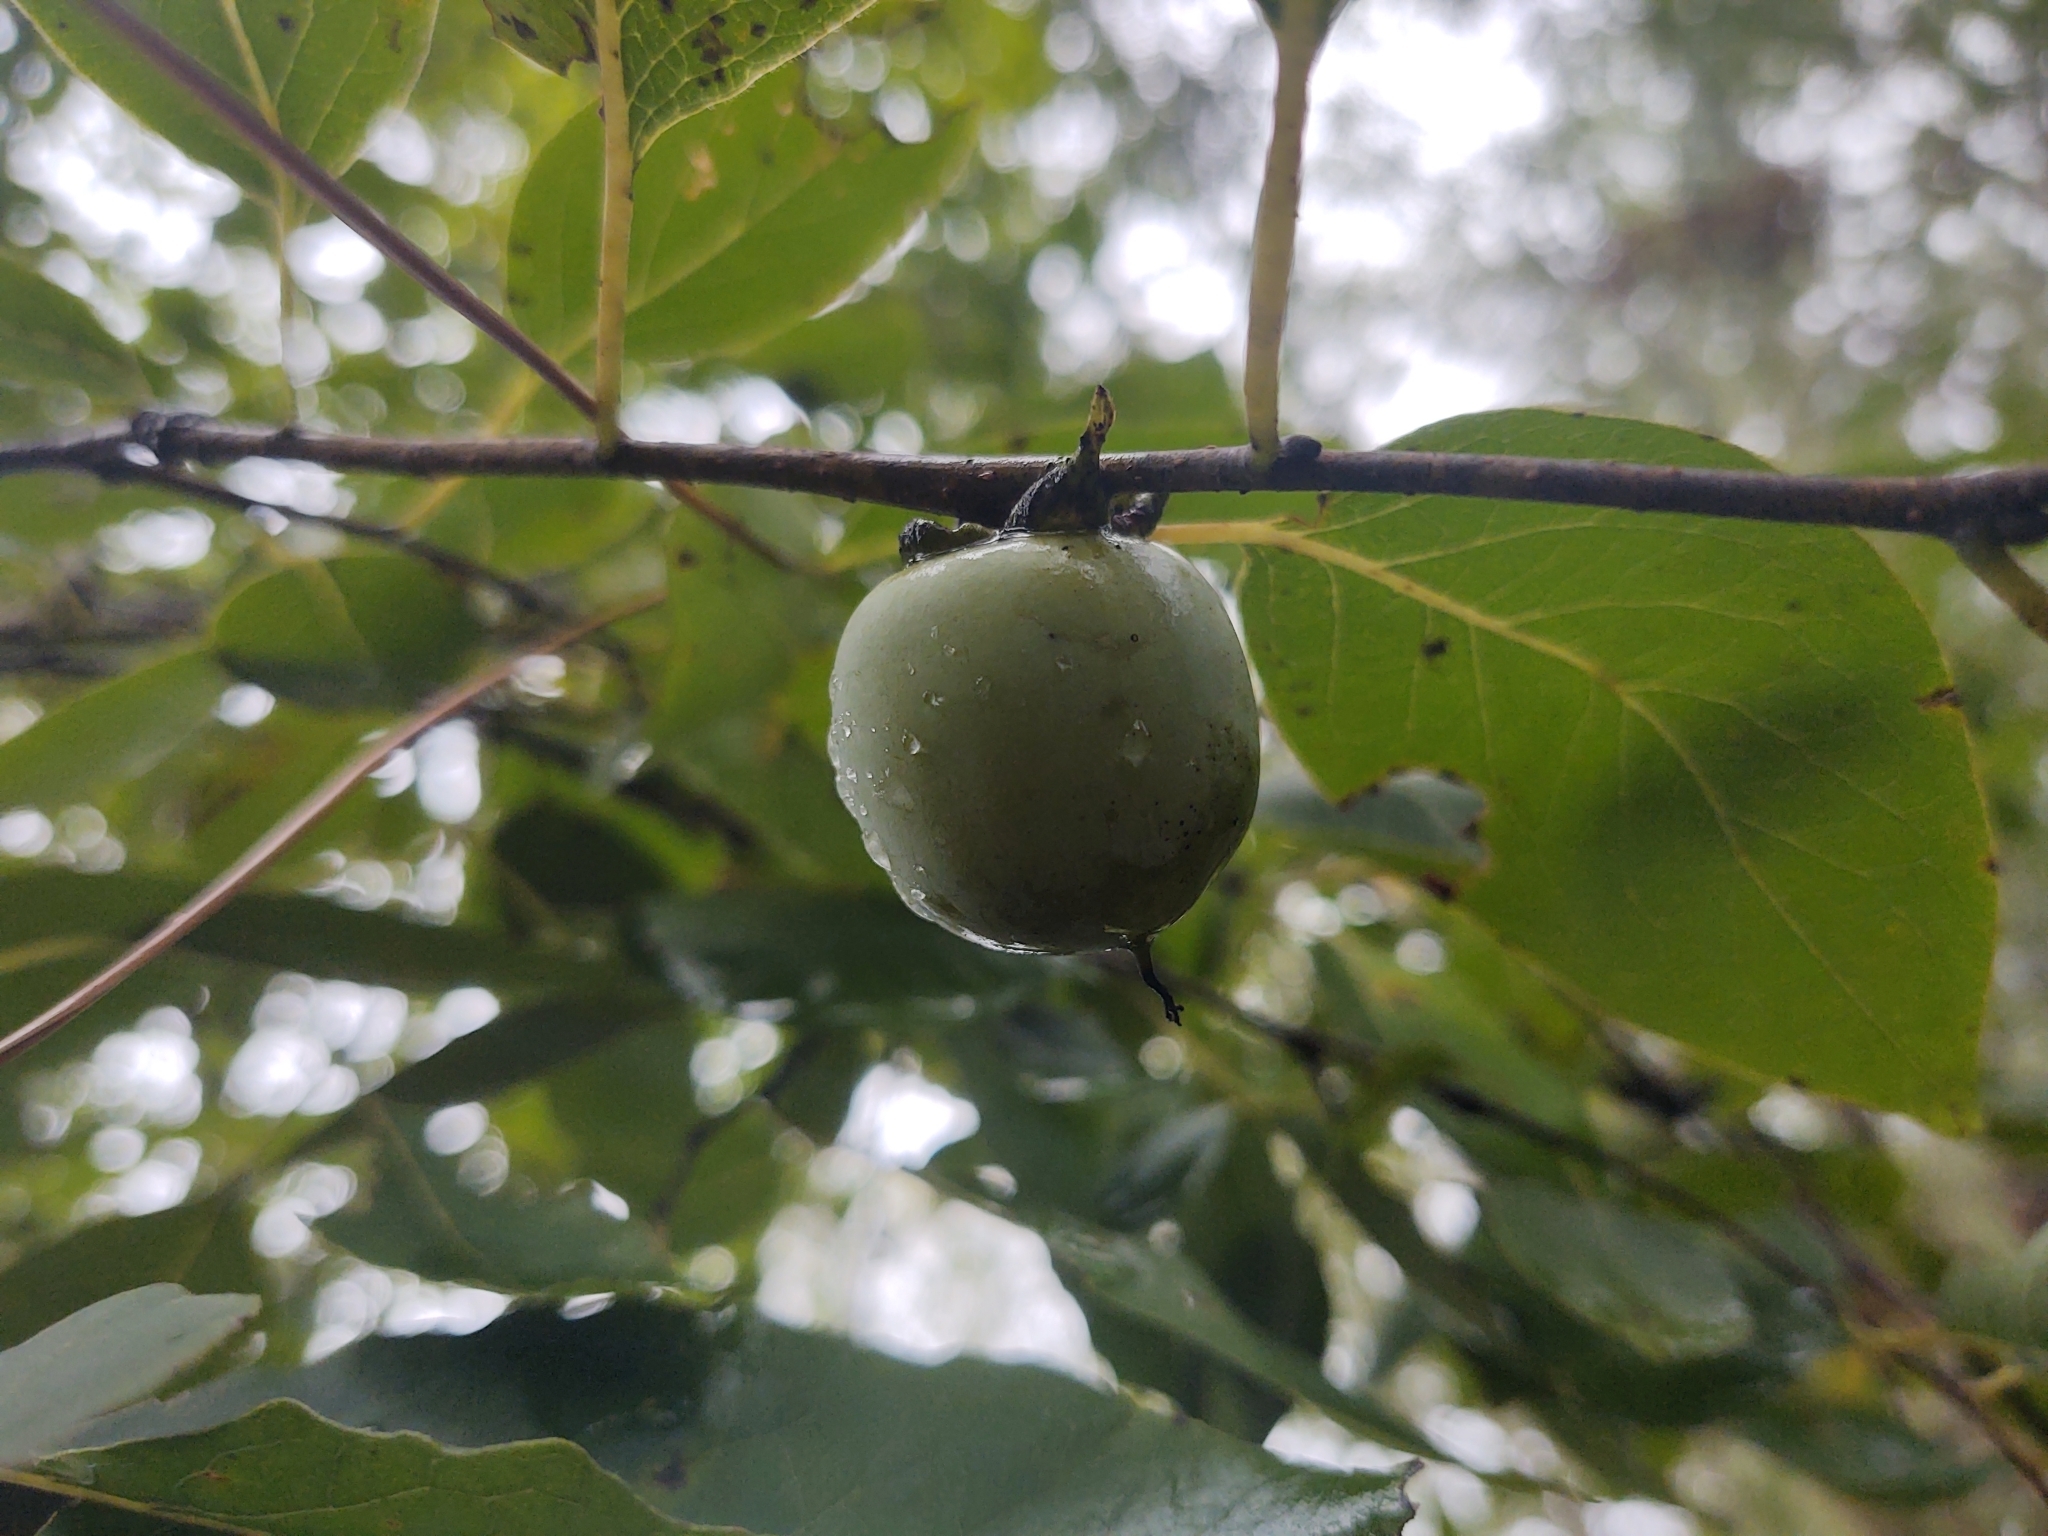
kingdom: Plantae
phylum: Tracheophyta
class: Magnoliopsida
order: Ericales
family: Ebenaceae
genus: Diospyros
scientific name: Diospyros virginiana
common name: Persimmon
